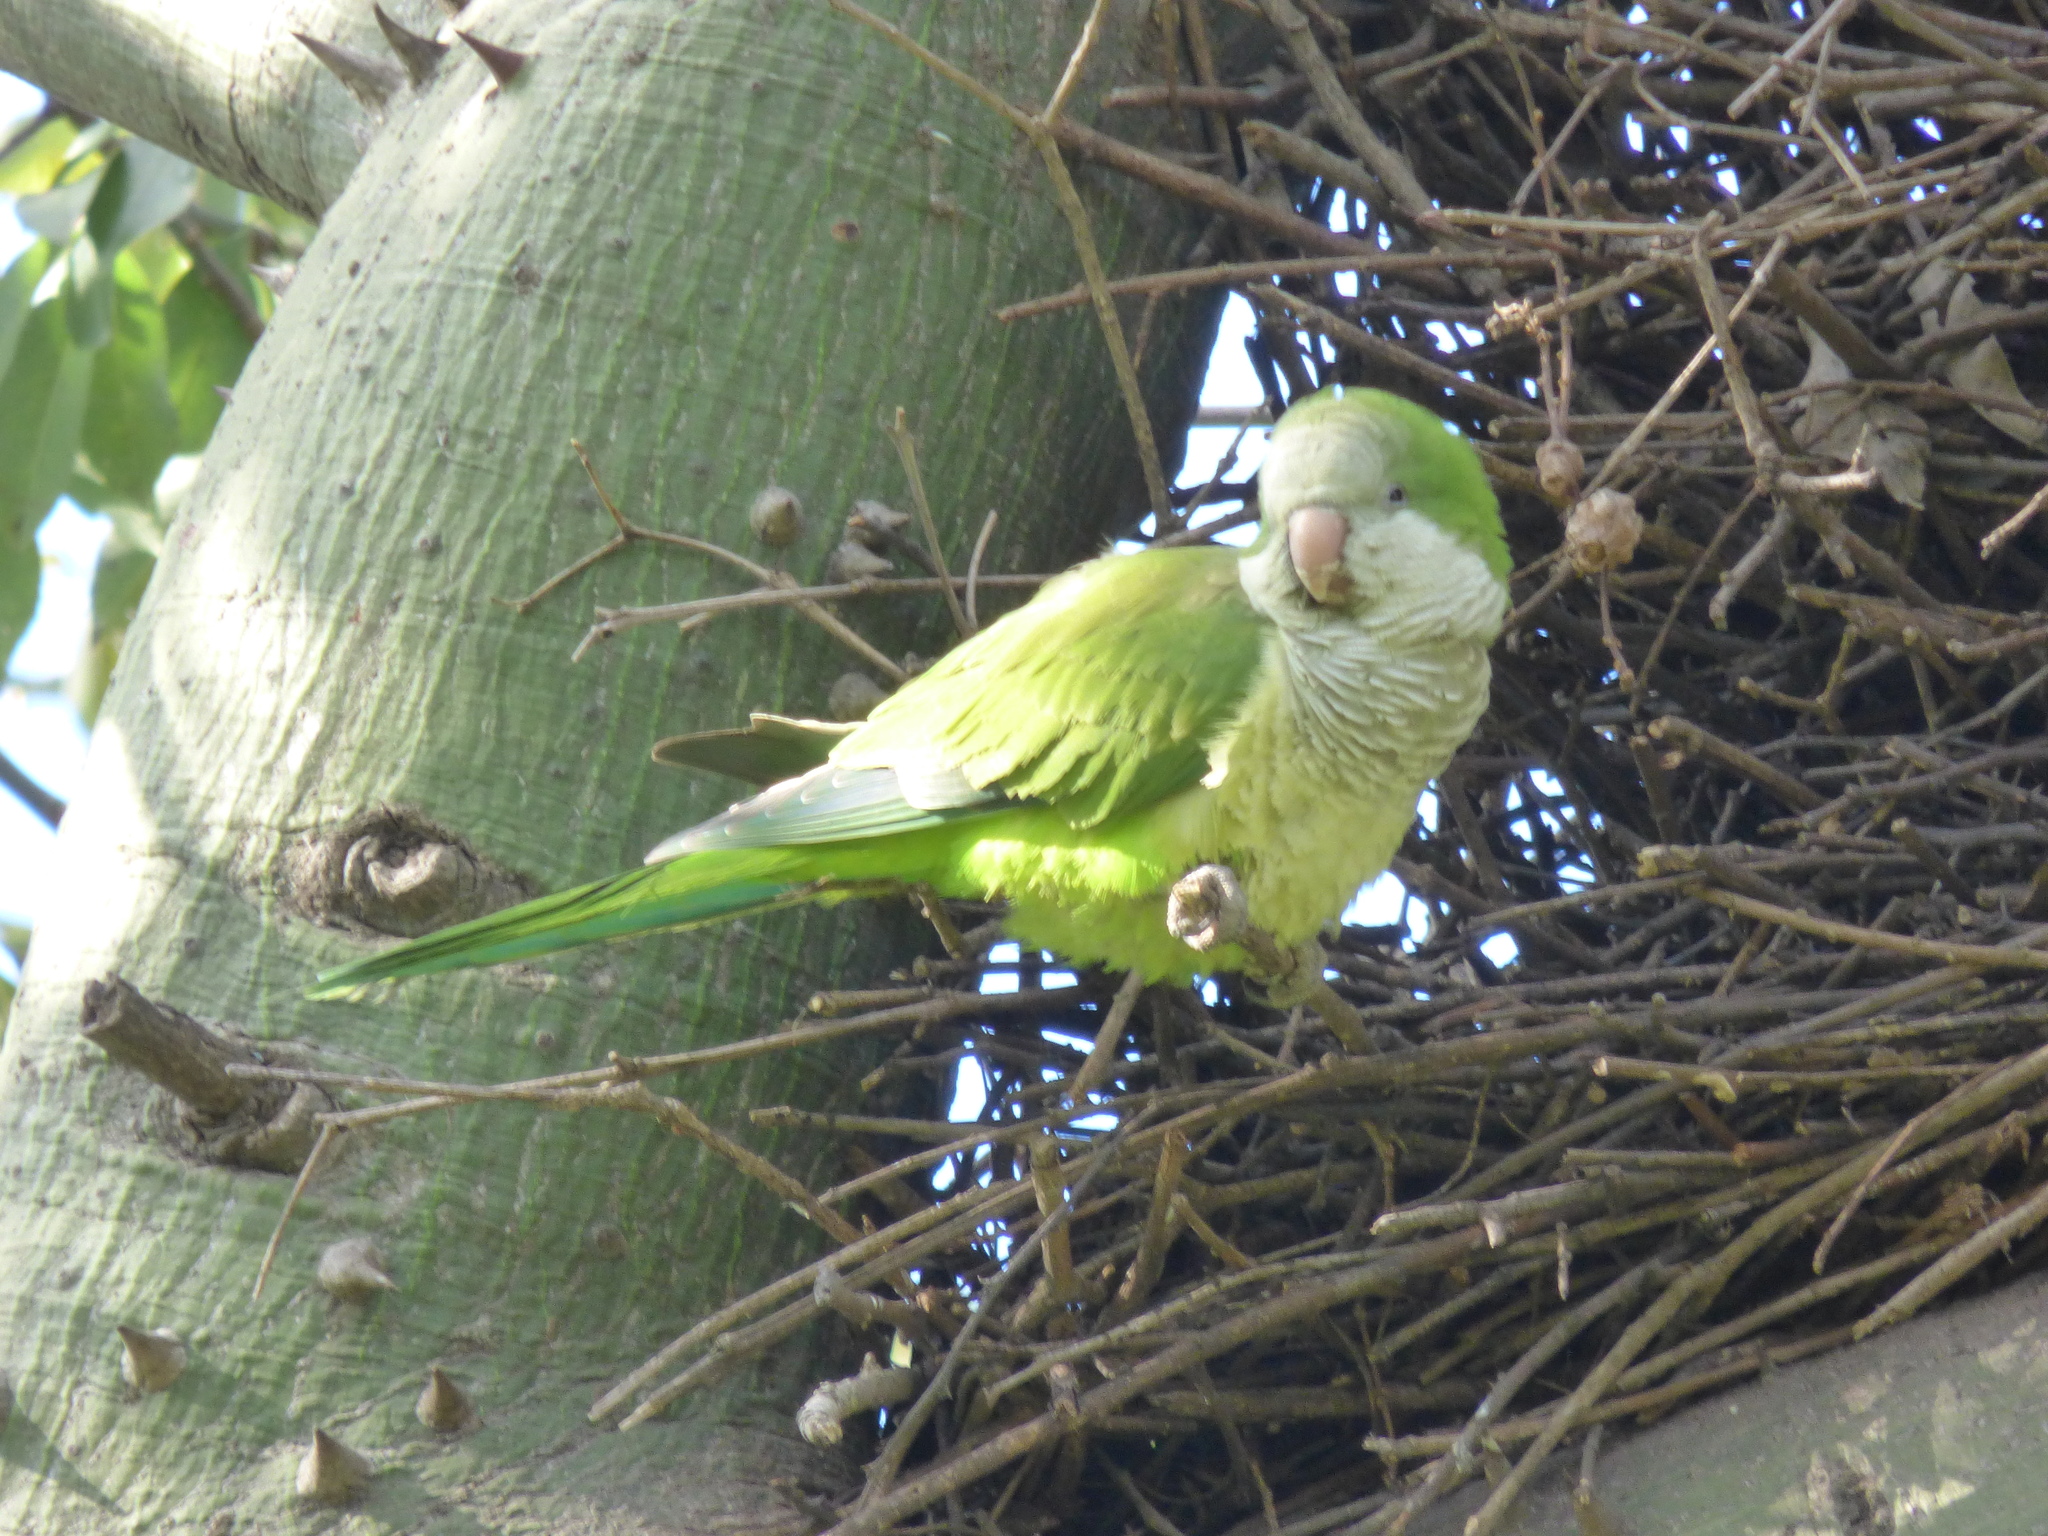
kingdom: Animalia
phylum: Chordata
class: Aves
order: Psittaciformes
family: Psittacidae
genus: Myiopsitta
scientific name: Myiopsitta monachus
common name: Monk parakeet
